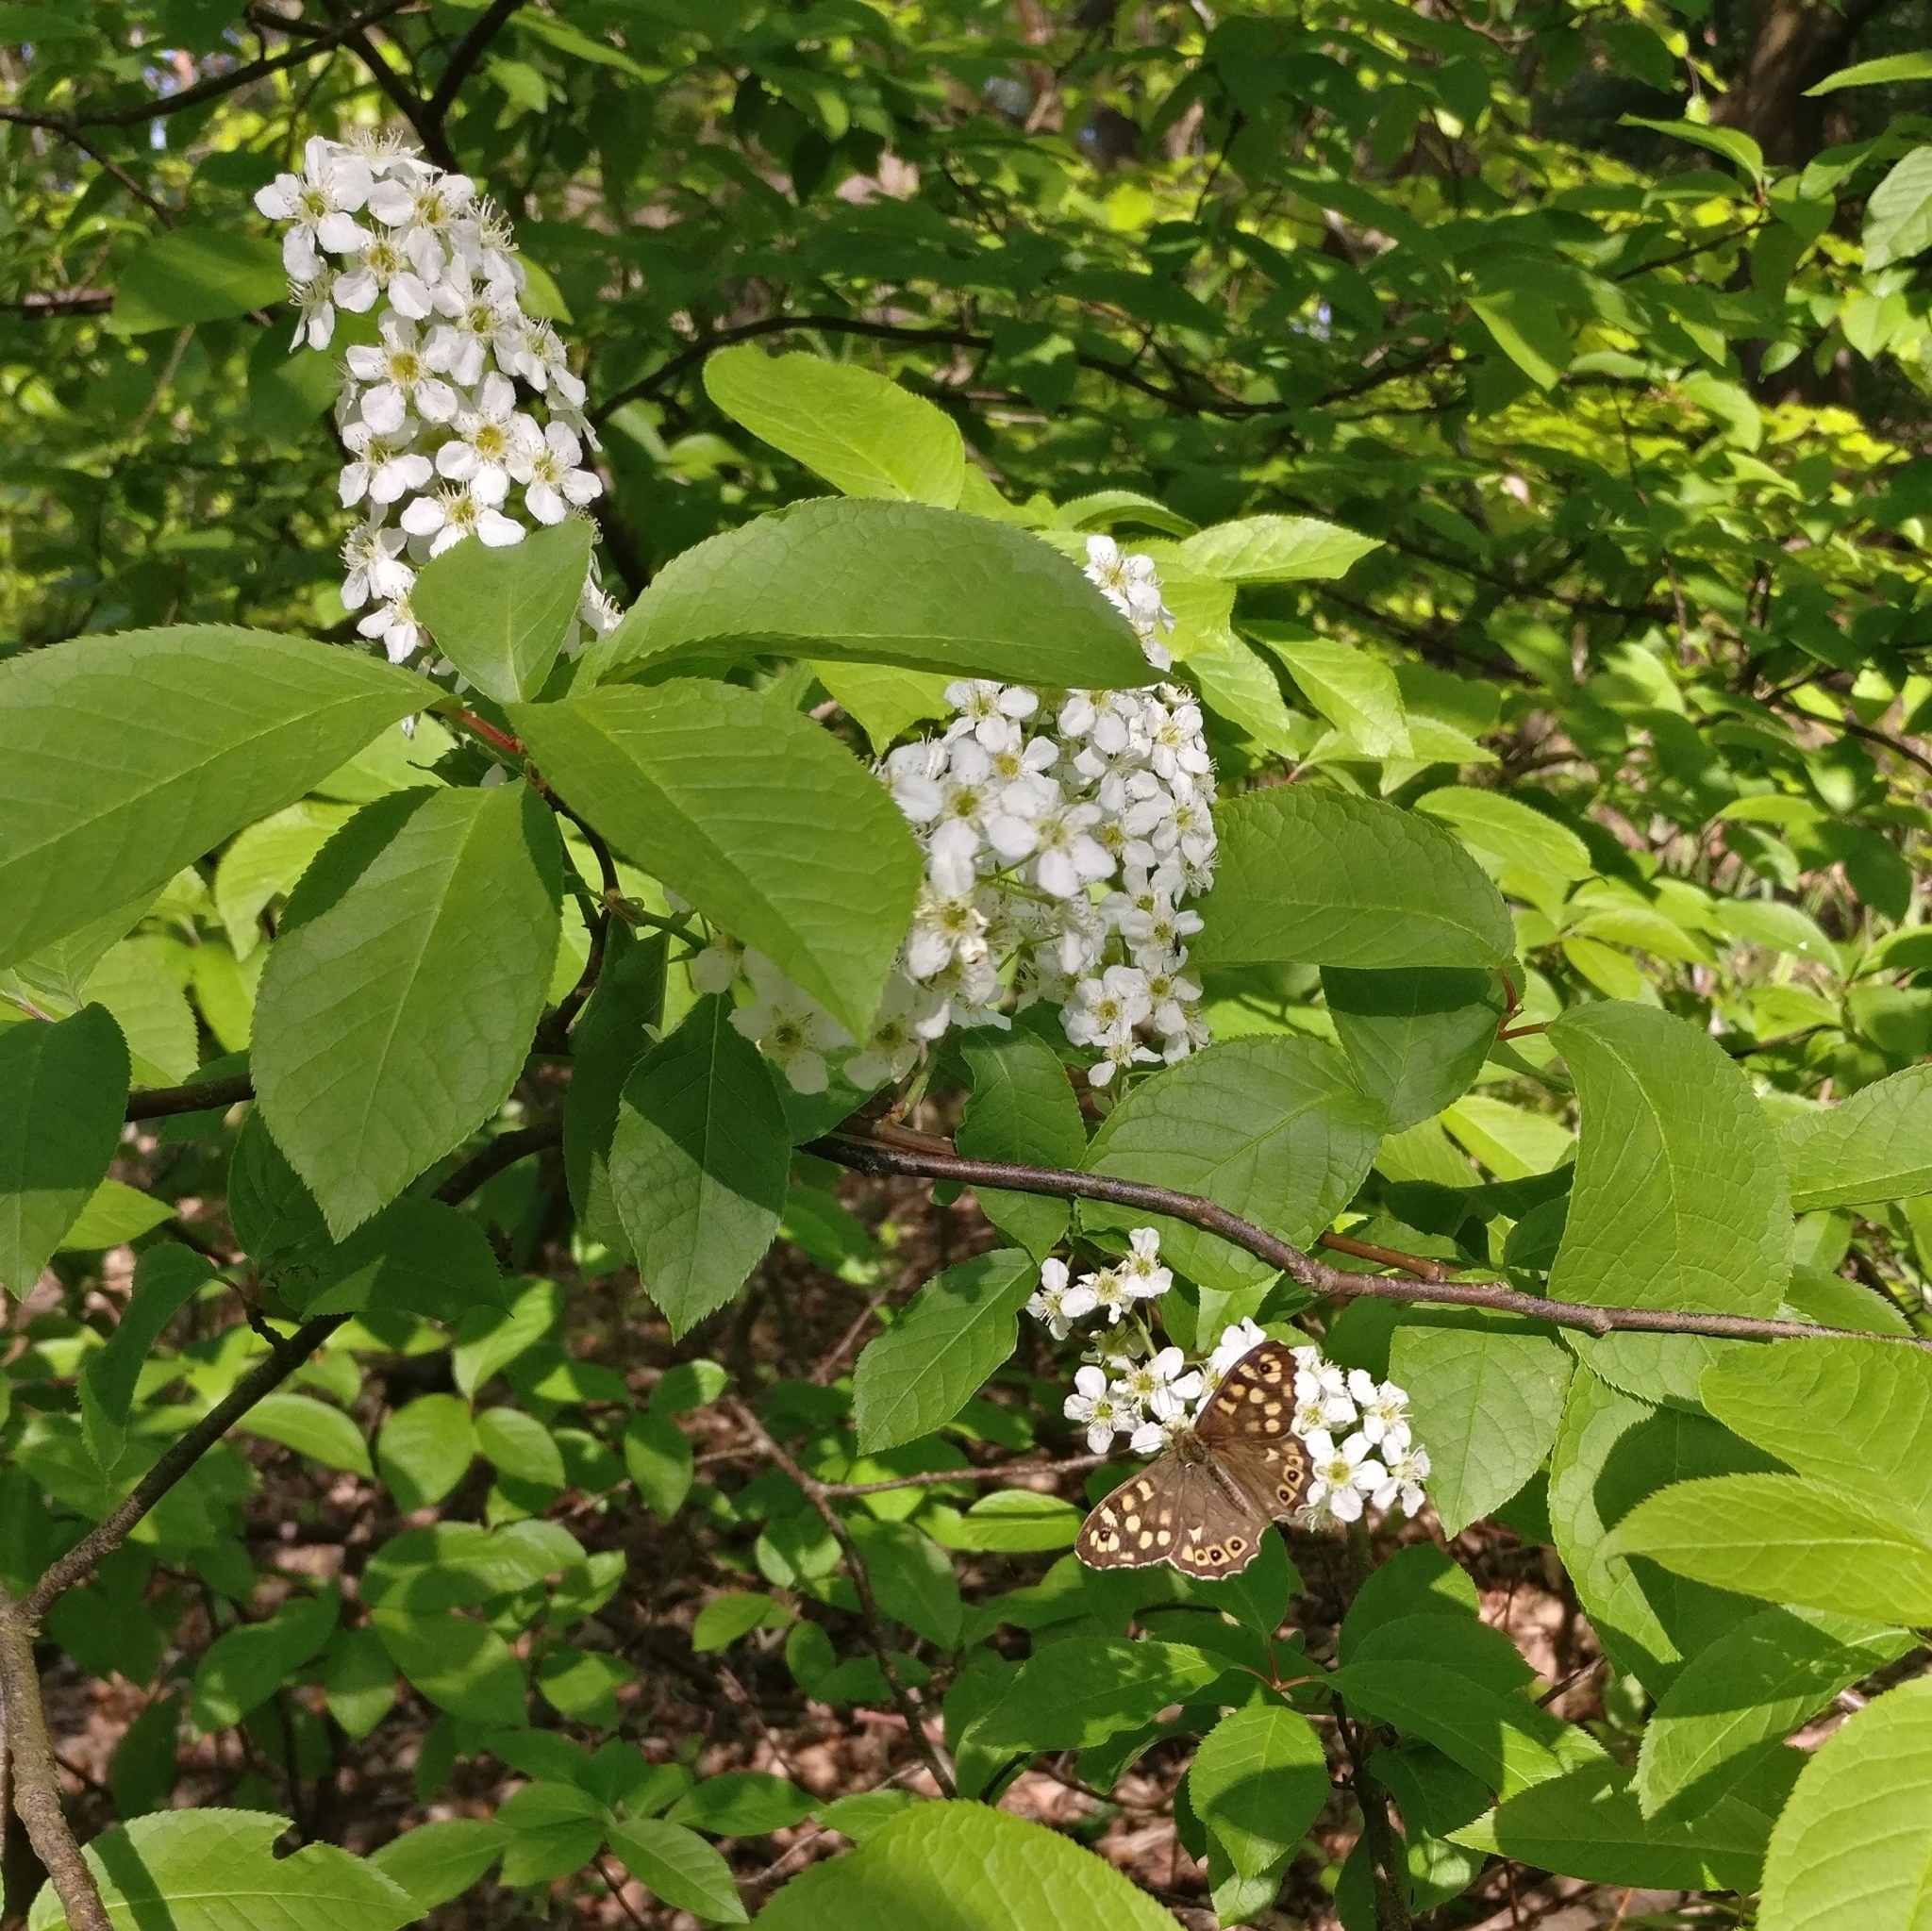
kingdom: Animalia
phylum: Arthropoda
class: Insecta
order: Lepidoptera
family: Nymphalidae
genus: Pararge
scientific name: Pararge aegeria
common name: Speckled wood
